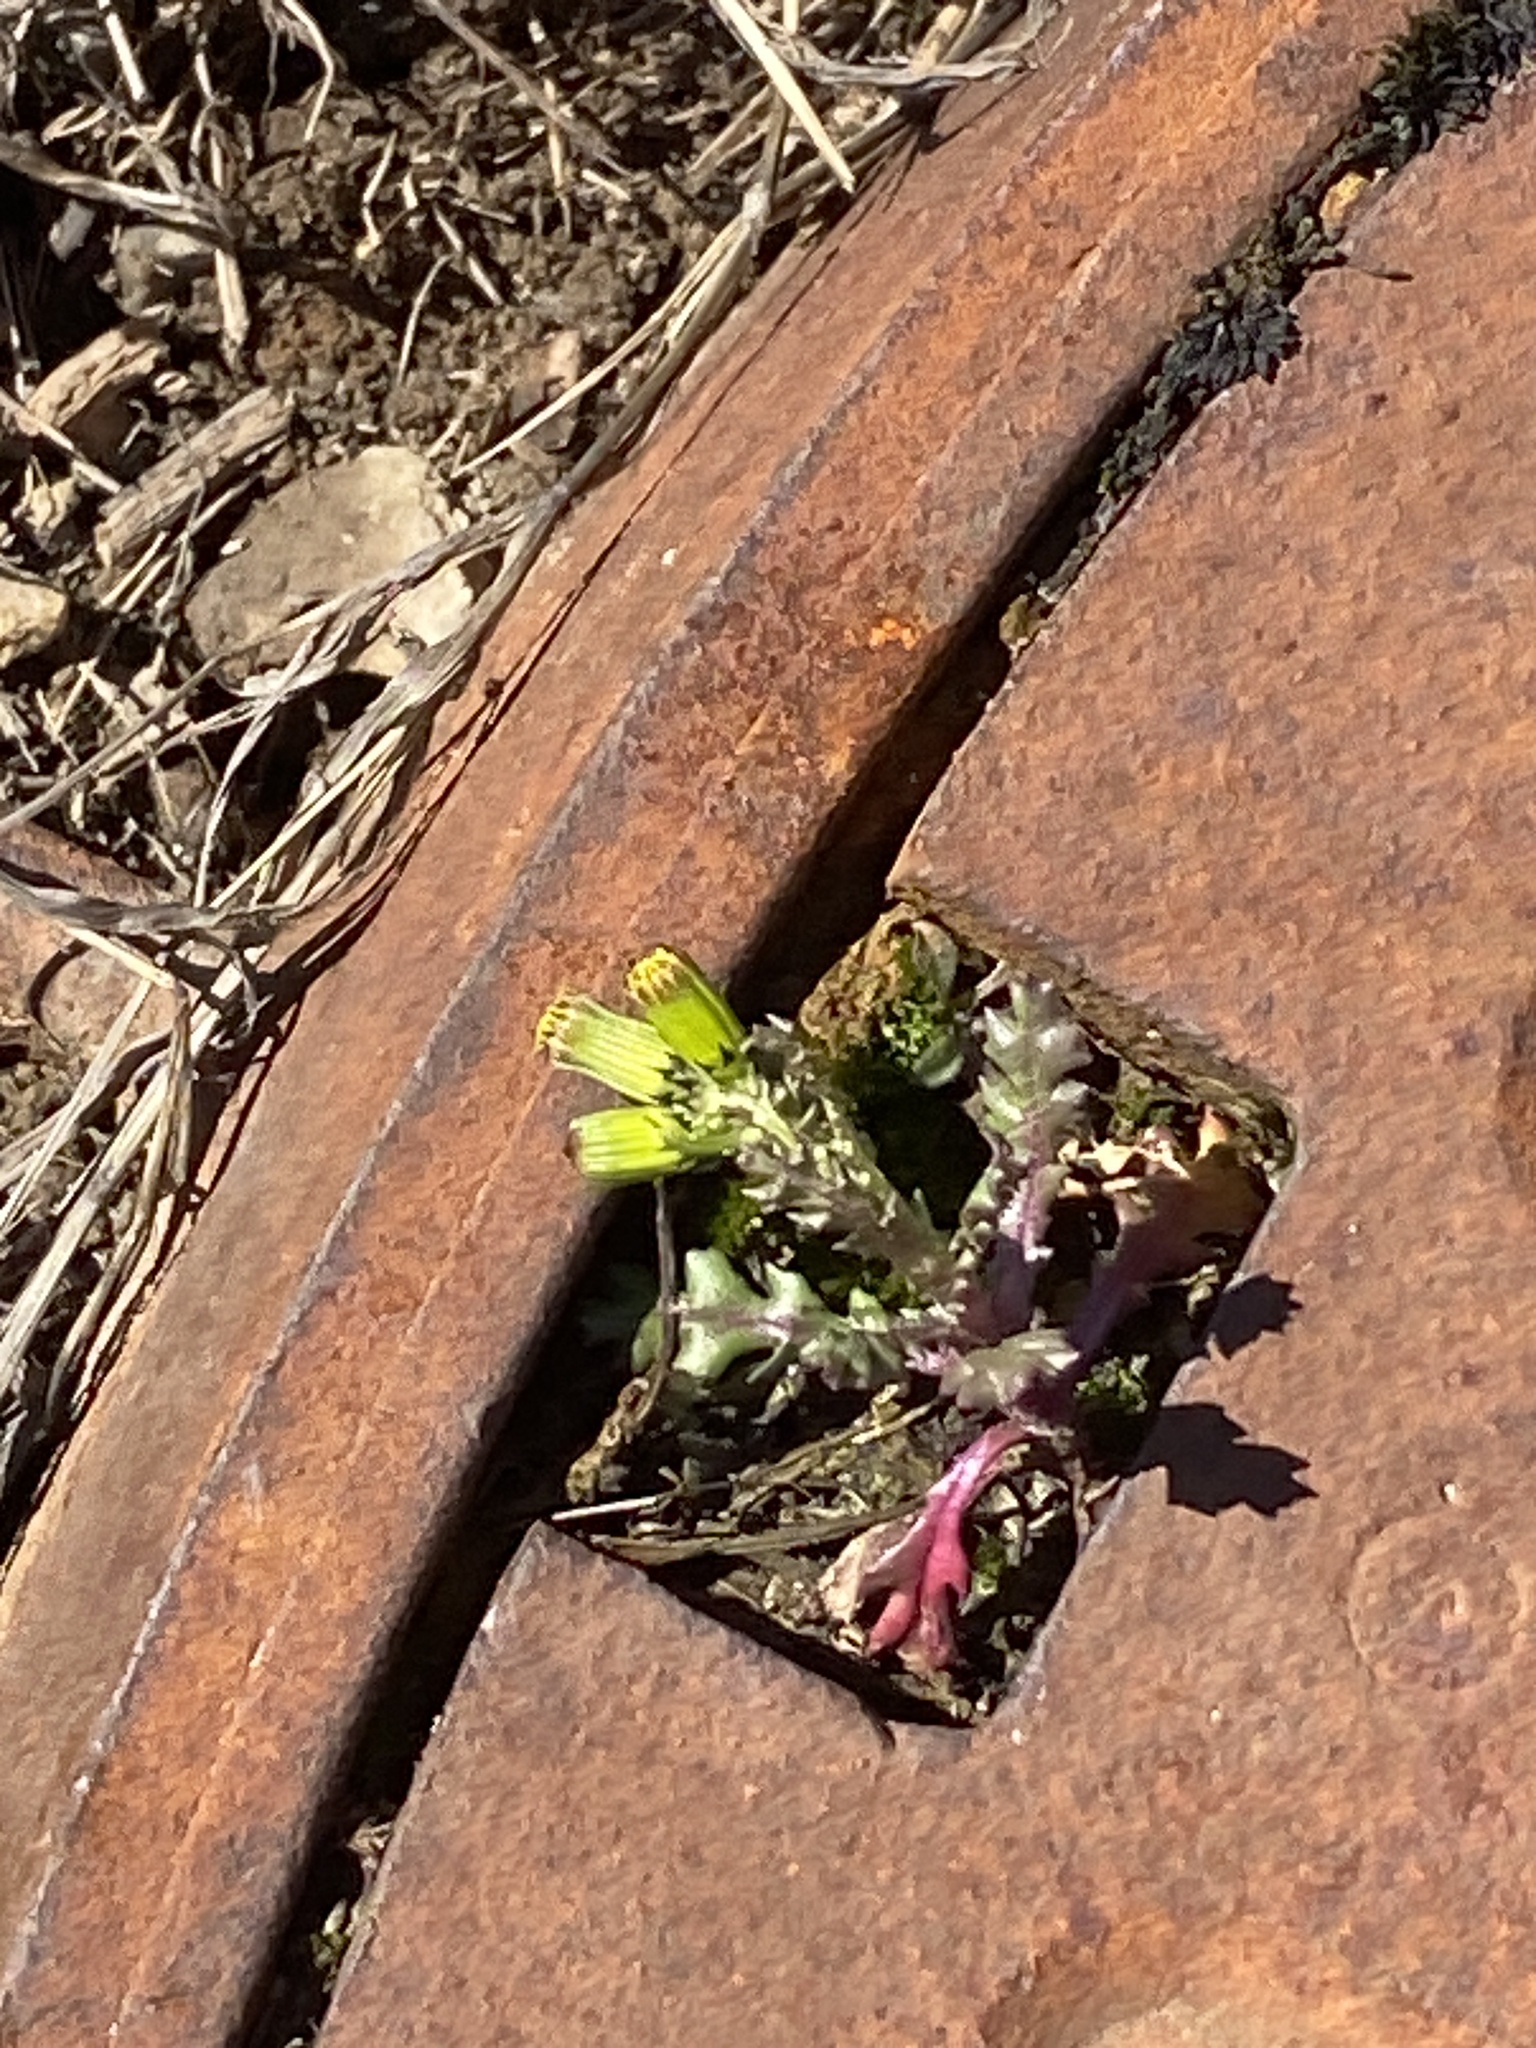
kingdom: Plantae
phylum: Tracheophyta
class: Magnoliopsida
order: Asterales
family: Asteraceae
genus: Senecio
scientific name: Senecio vulgaris
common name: Old-man-in-the-spring
